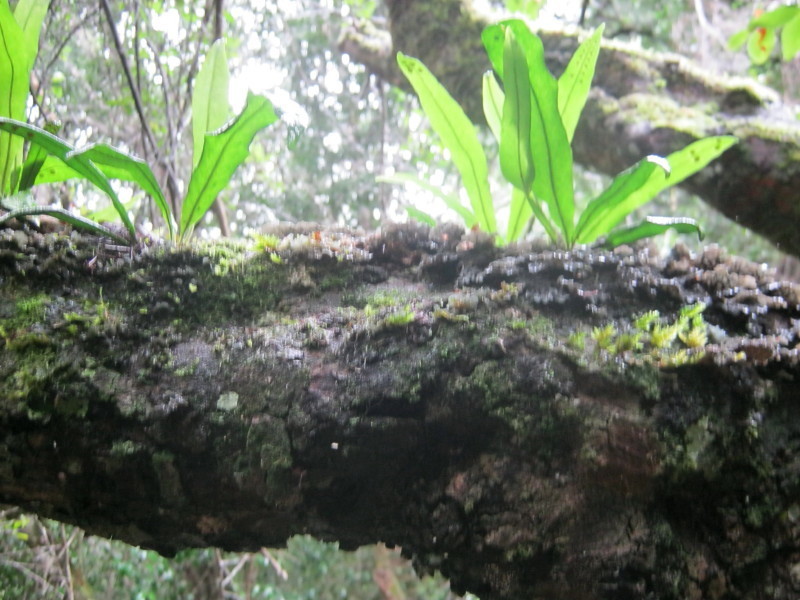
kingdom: Plantae
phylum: Tracheophyta
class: Polypodiopsida
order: Polypodiales
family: Polypodiaceae
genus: Lepisorus
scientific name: Lepisorus schraderi
